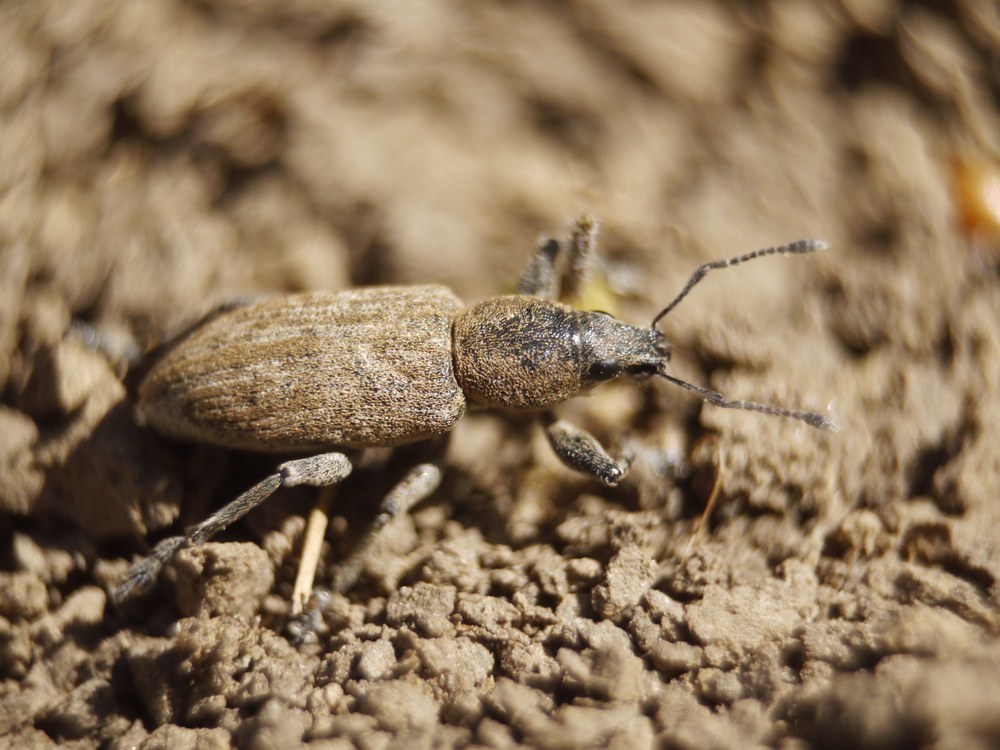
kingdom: Animalia
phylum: Arthropoda
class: Insecta
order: Coleoptera
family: Curculionidae
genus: Tanymecus
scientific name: Tanymecus palliatus
